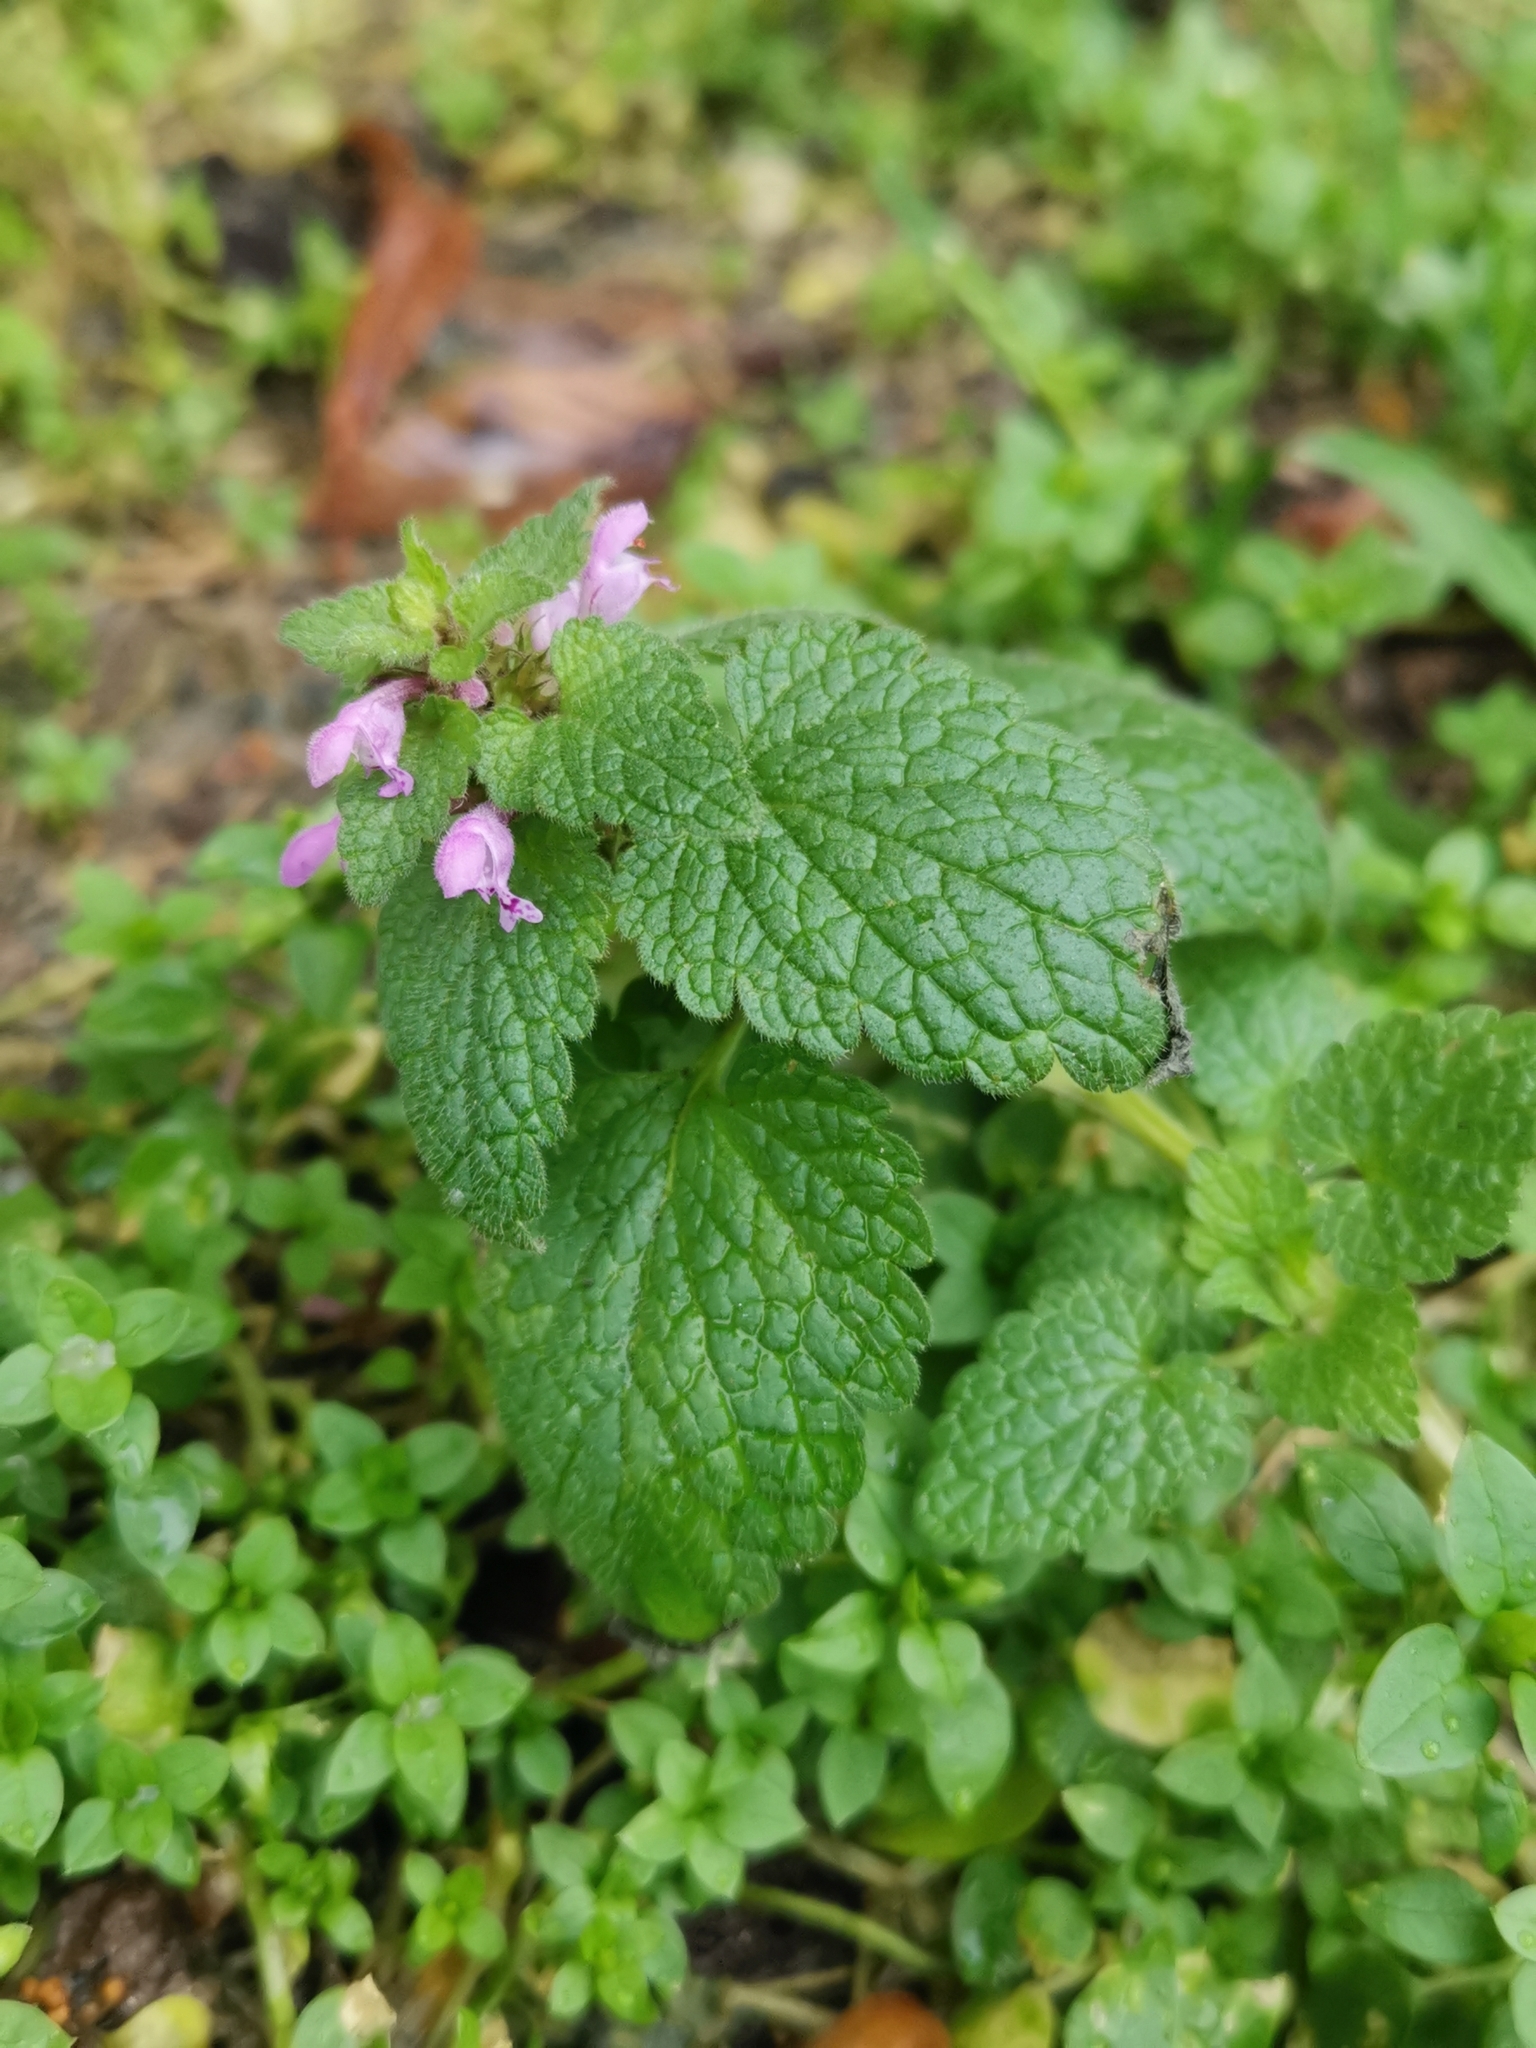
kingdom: Plantae
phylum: Tracheophyta
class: Magnoliopsida
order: Lamiales
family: Lamiaceae
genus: Lamium
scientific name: Lamium purpureum
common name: Red dead-nettle
